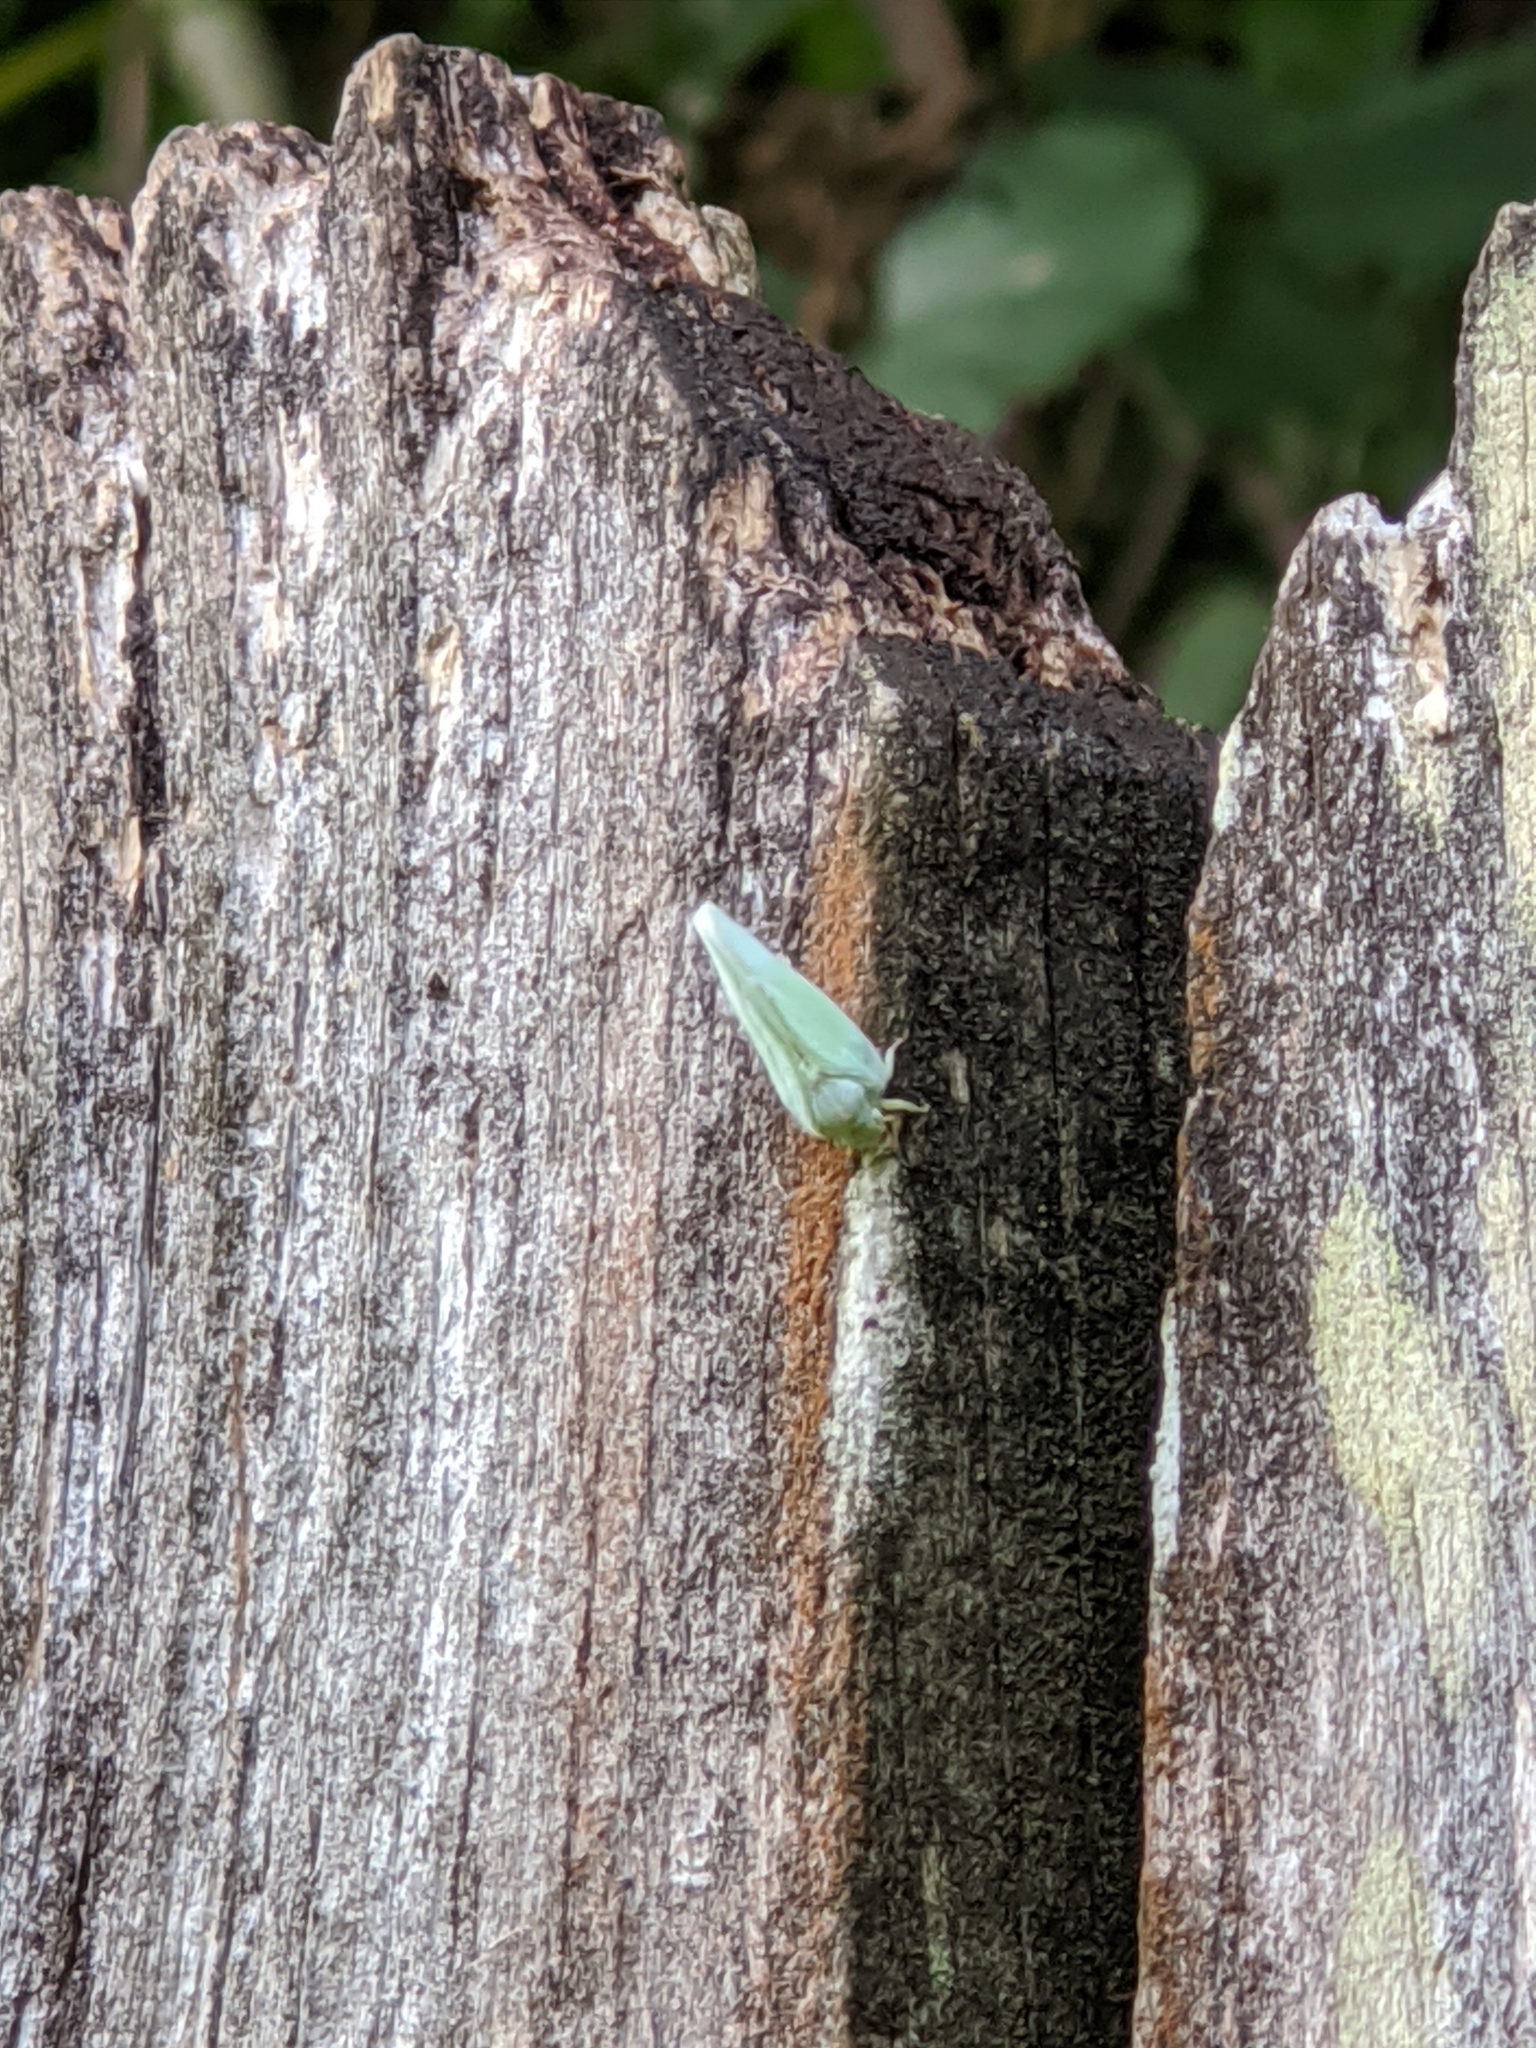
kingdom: Animalia
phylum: Arthropoda
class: Insecta
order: Hemiptera
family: Flatidae
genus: Ormenoides
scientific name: Ormenoides venusta
